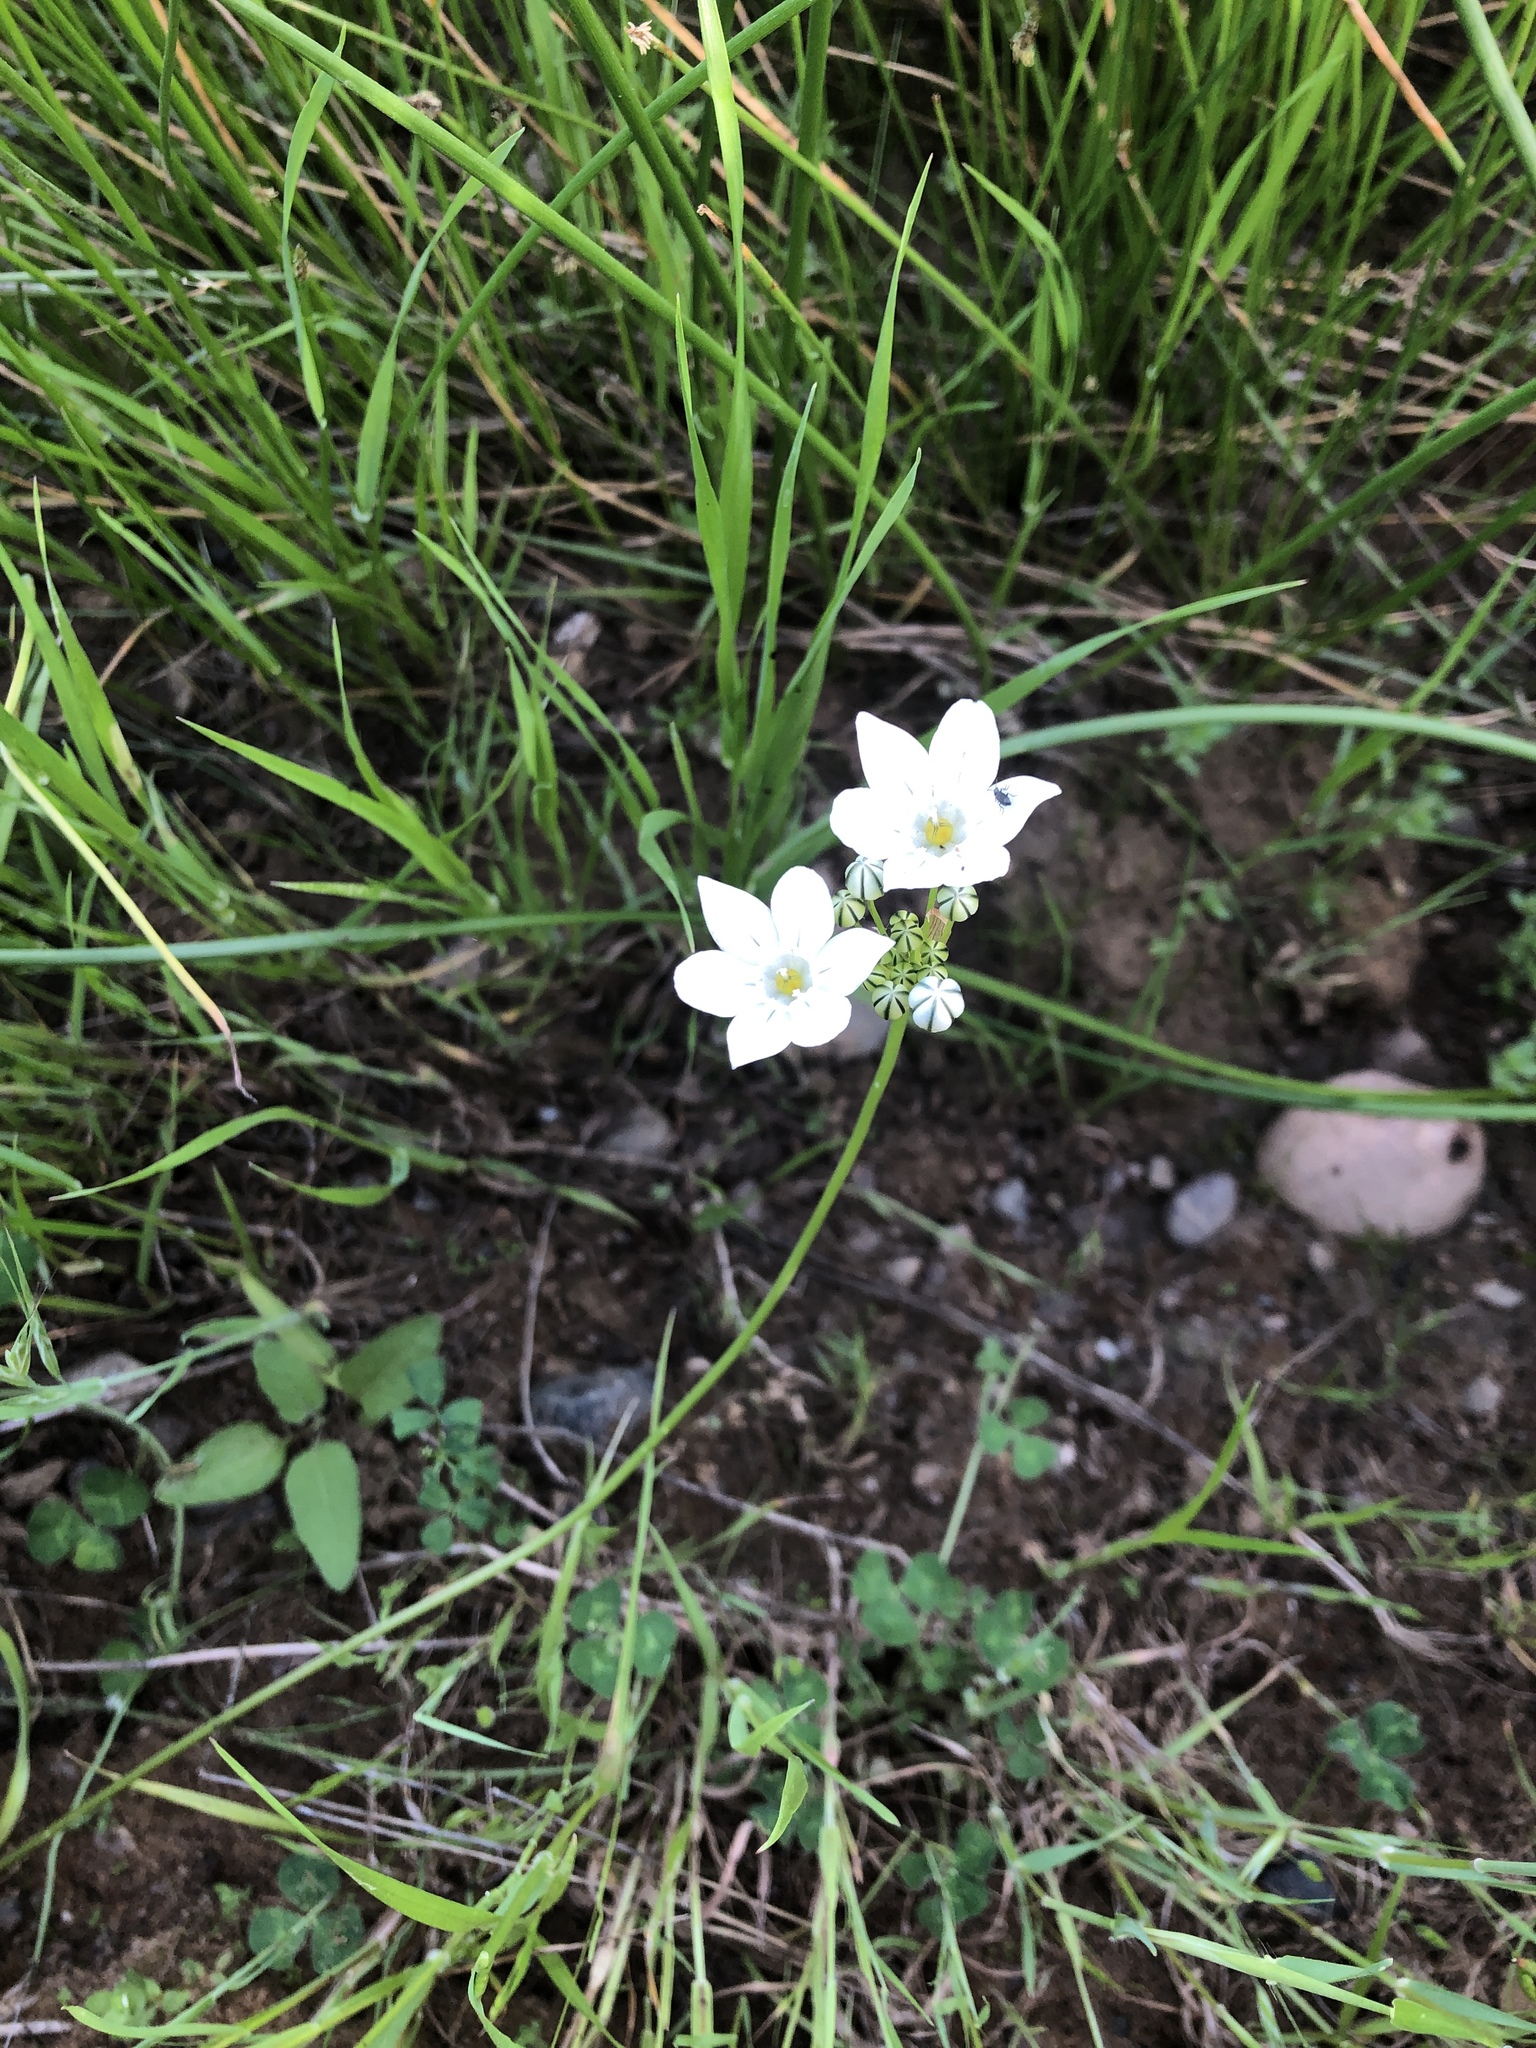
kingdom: Plantae
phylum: Tracheophyta
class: Liliopsida
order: Asparagales
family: Asparagaceae
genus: Triteleia
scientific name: Triteleia hyacinthina
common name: White brodiaea
